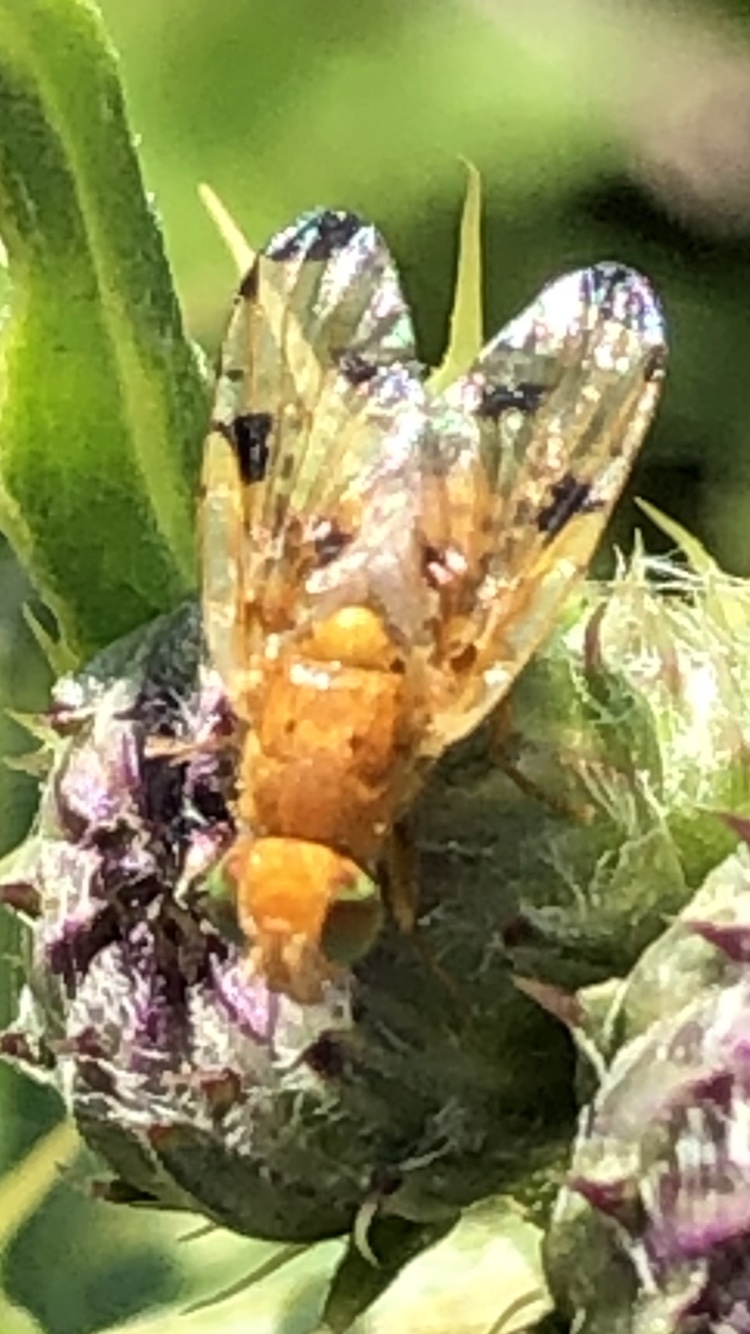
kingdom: Animalia
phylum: Arthropoda
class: Insecta
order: Diptera
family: Tephritidae
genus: Xyphosia
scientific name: Xyphosia miliaria
